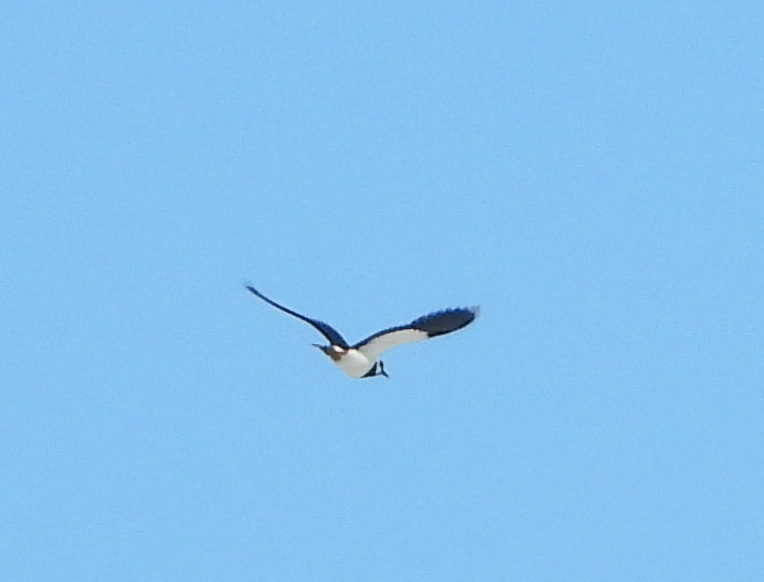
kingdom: Animalia
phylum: Chordata
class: Aves
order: Charadriiformes
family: Charadriidae
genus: Vanellus
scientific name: Vanellus vanellus
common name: Northern lapwing
